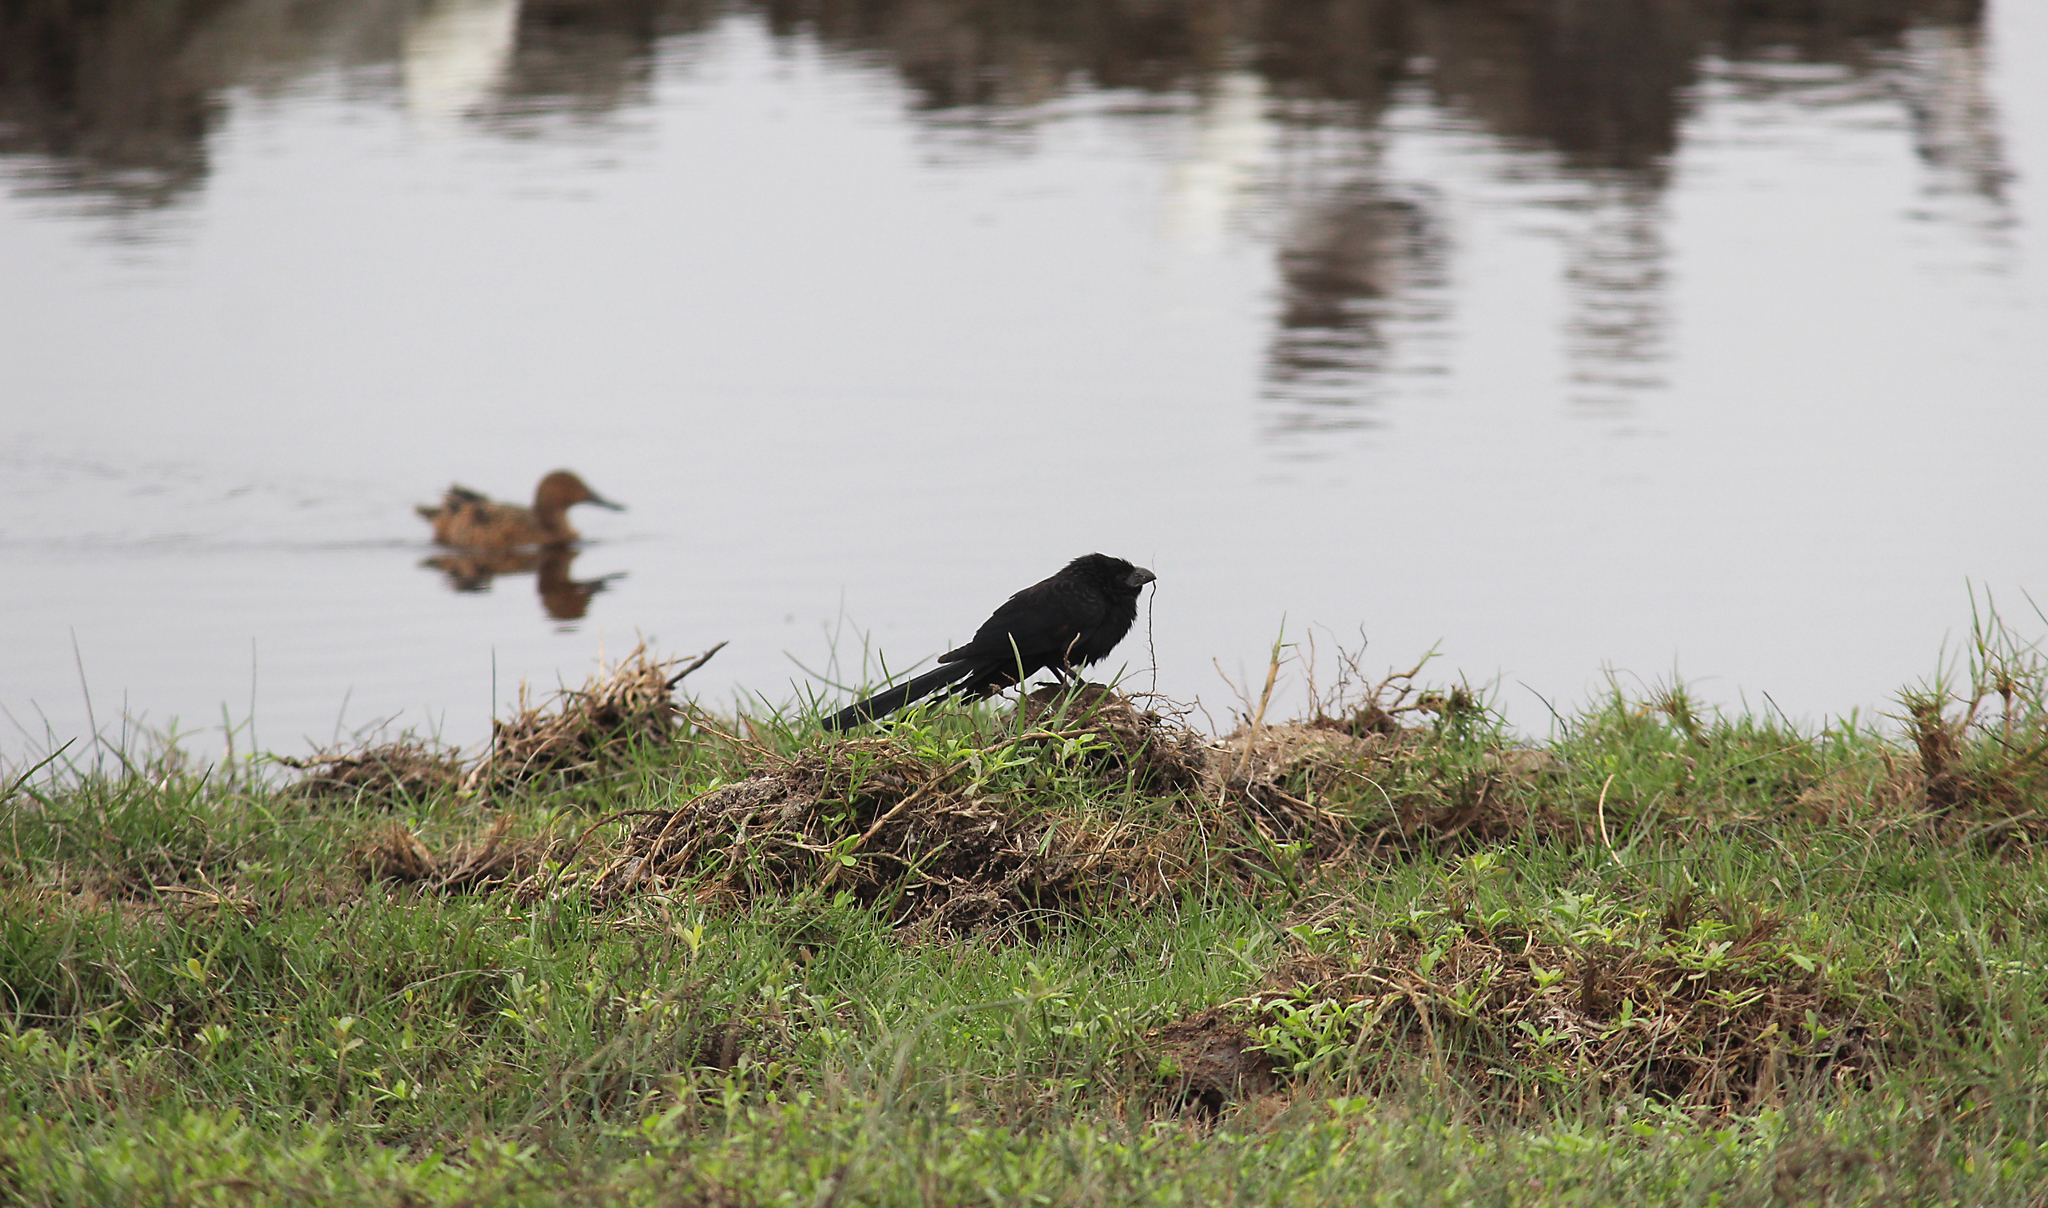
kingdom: Animalia
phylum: Chordata
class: Aves
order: Cuculiformes
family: Cuculidae
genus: Crotophaga
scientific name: Crotophaga sulcirostris
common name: Groove-billed ani
